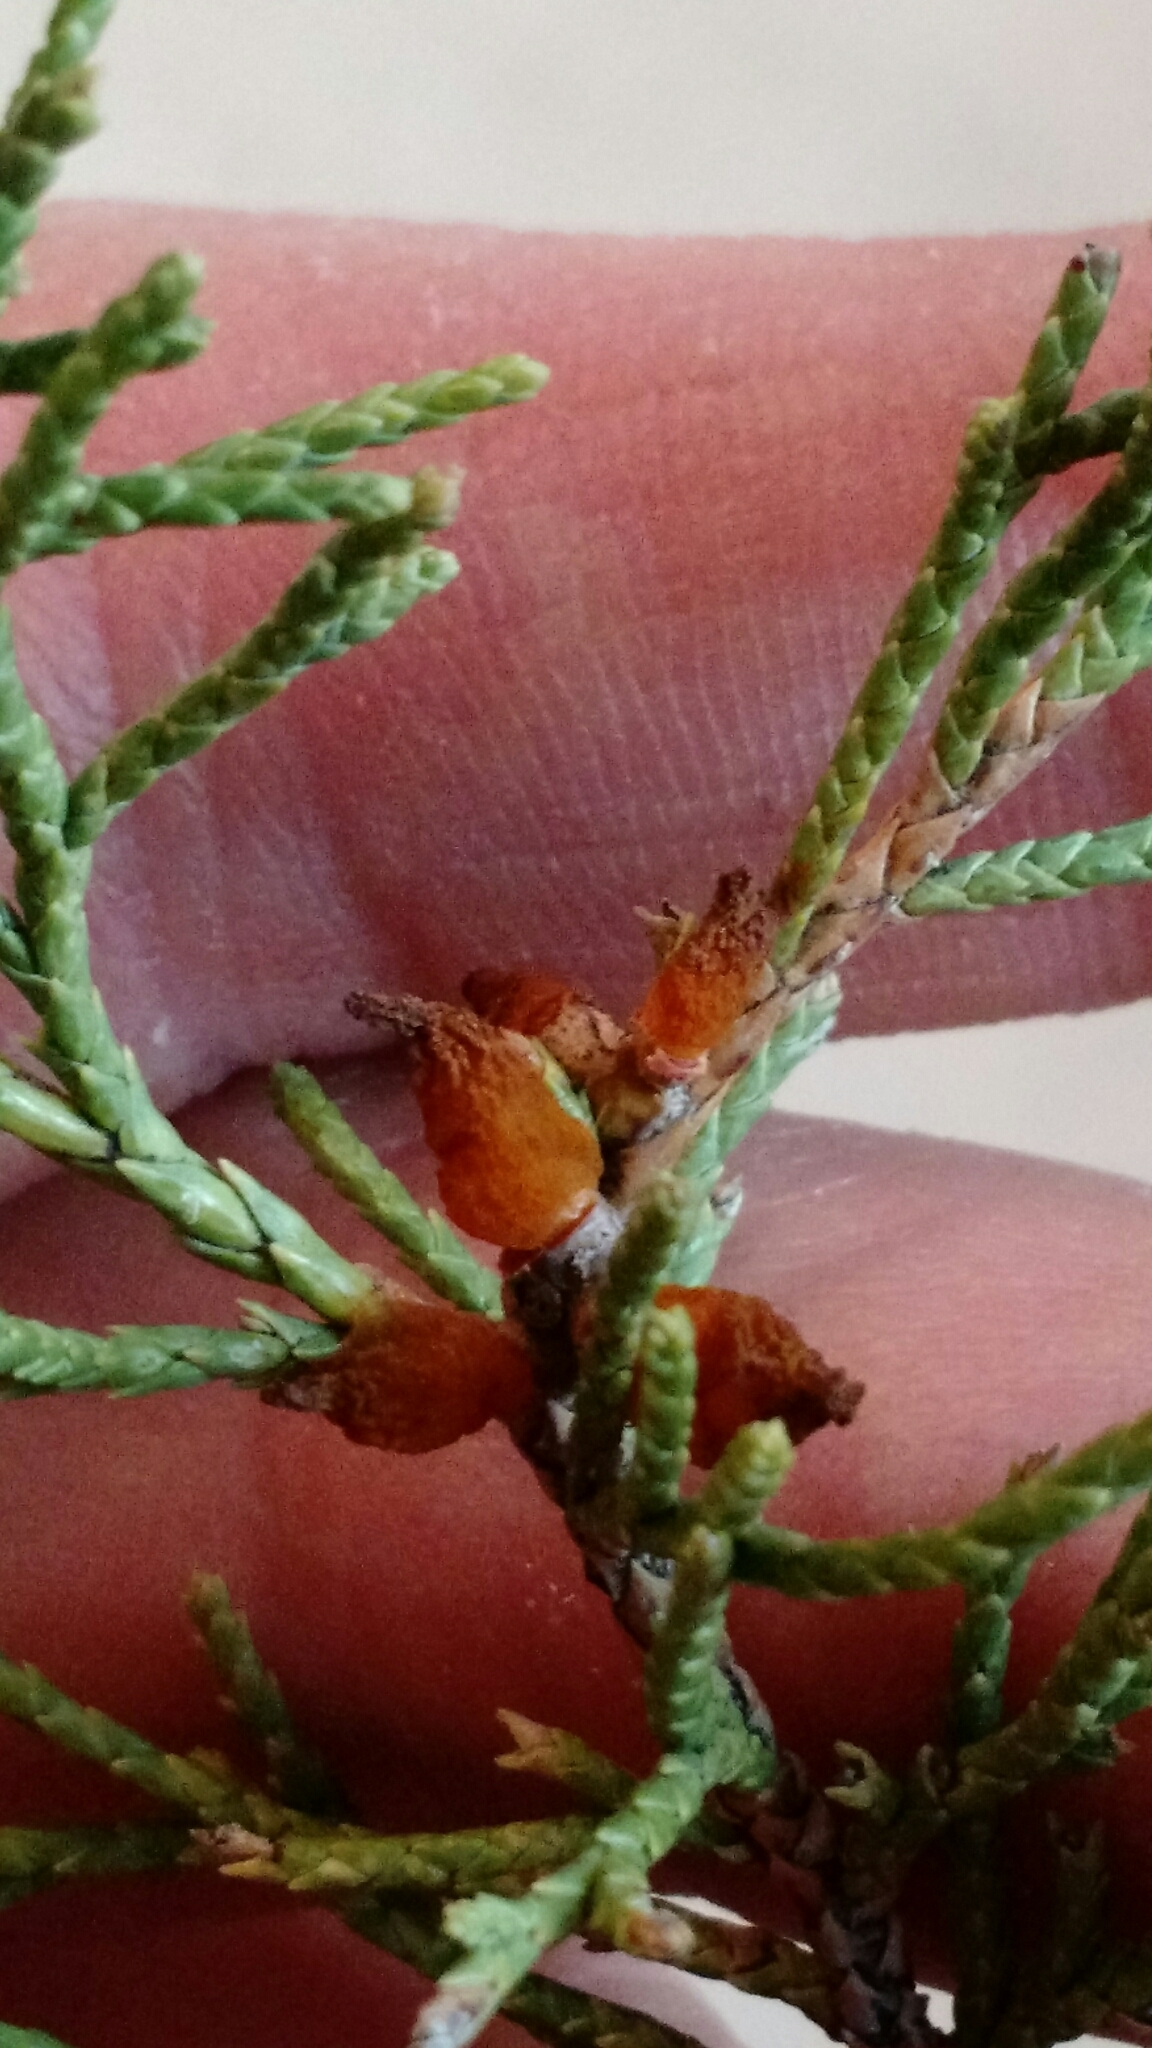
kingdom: Fungi
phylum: Basidiomycota
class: Pucciniomycetes
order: Pucciniales
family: Gymnosporangiaceae
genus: Gymnosporangium
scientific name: Gymnosporangium juniperi-virginianae
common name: Juniper-apple rust
